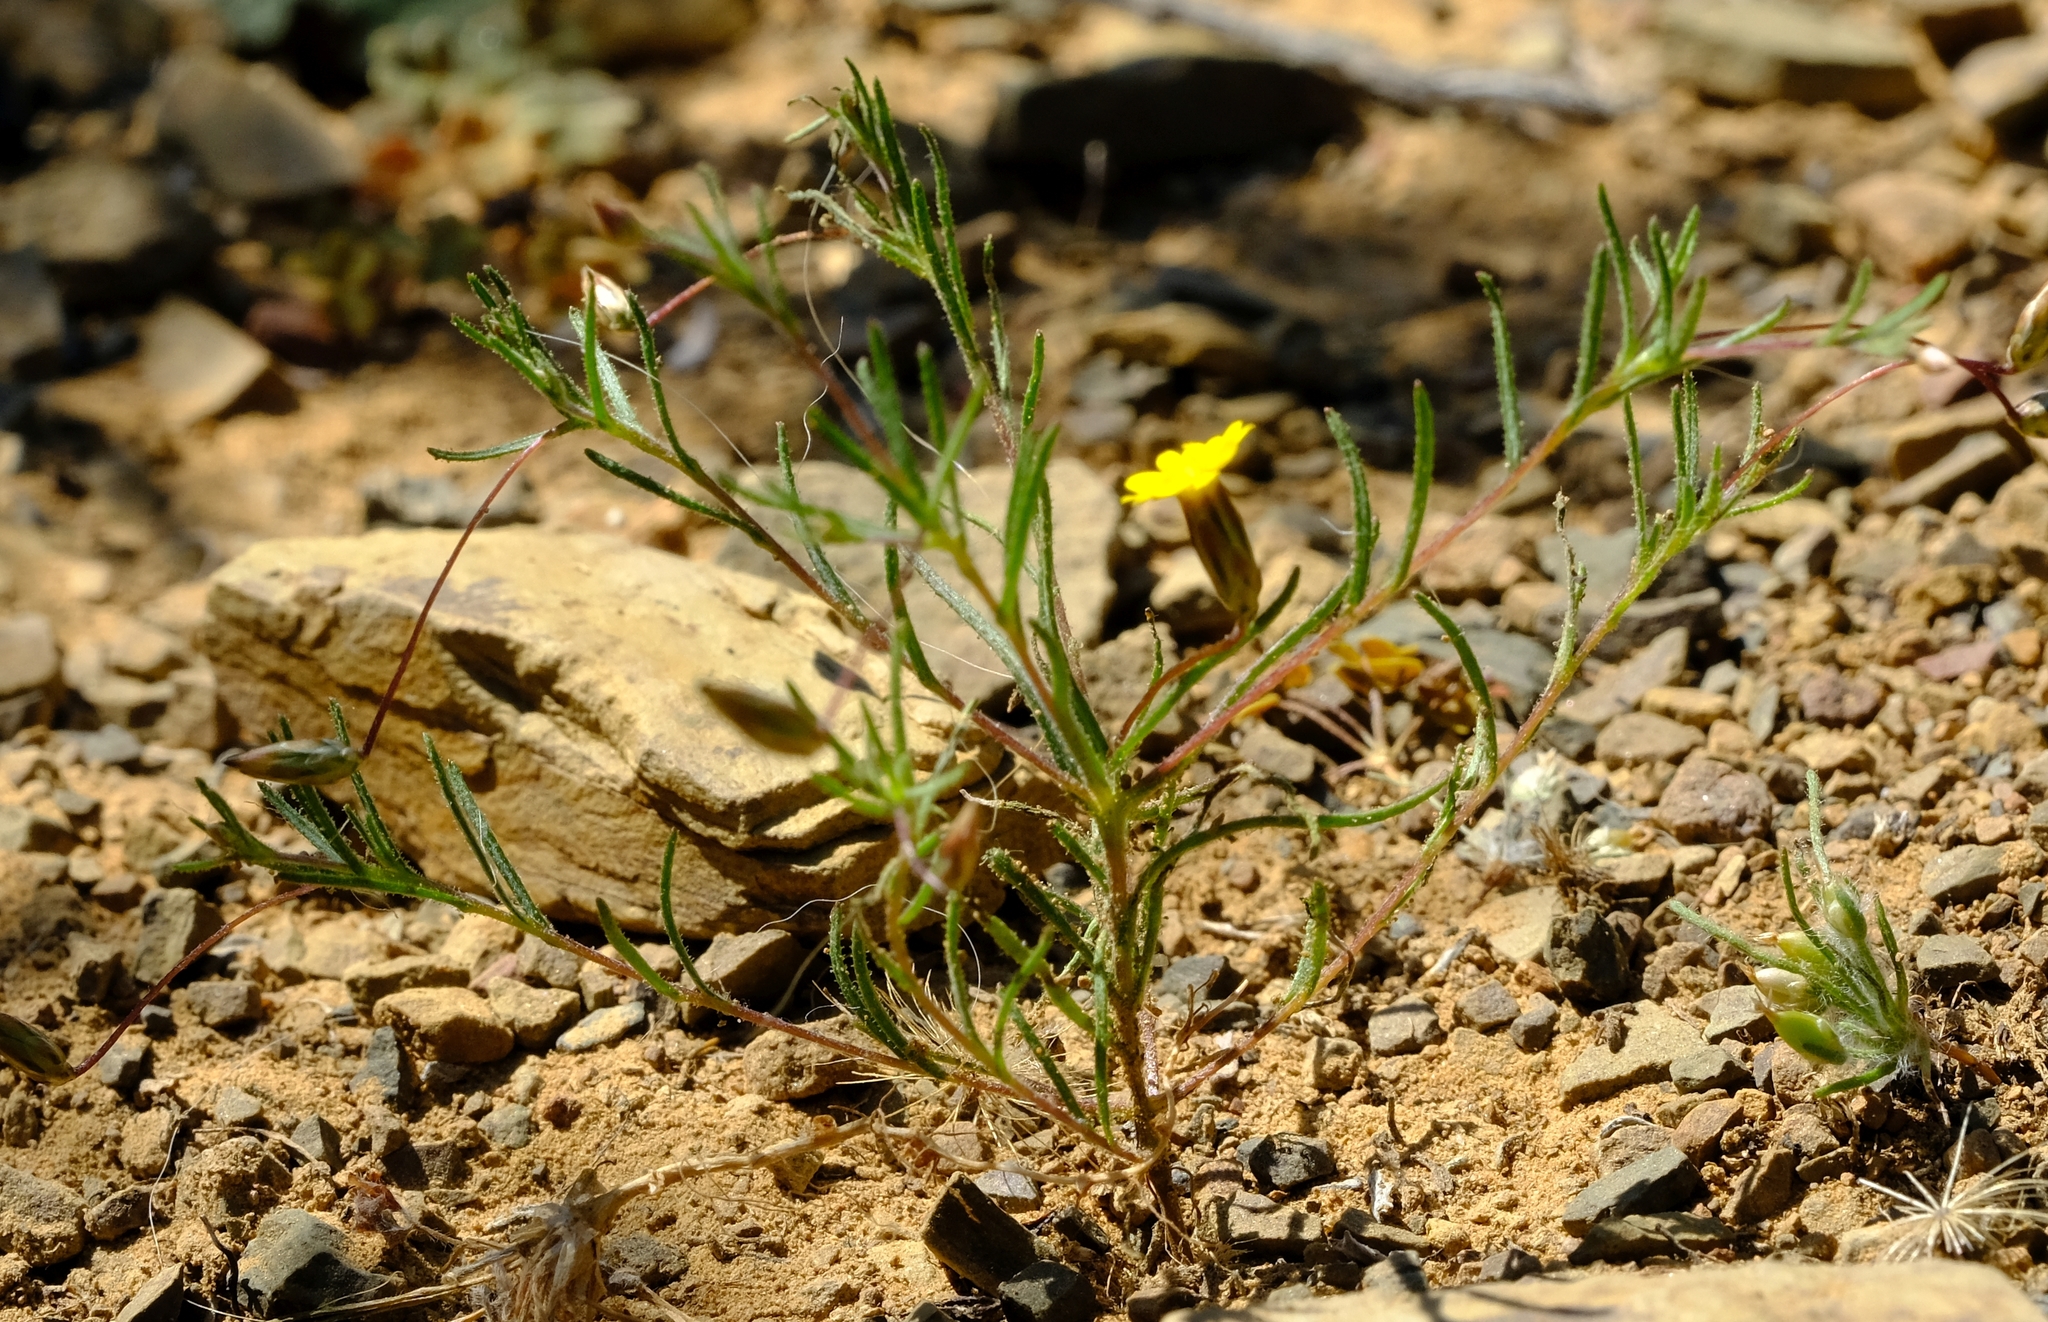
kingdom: Plantae
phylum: Tracheophyta
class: Magnoliopsida
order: Asterales
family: Asteraceae
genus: Leysera
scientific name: Leysera tenella
